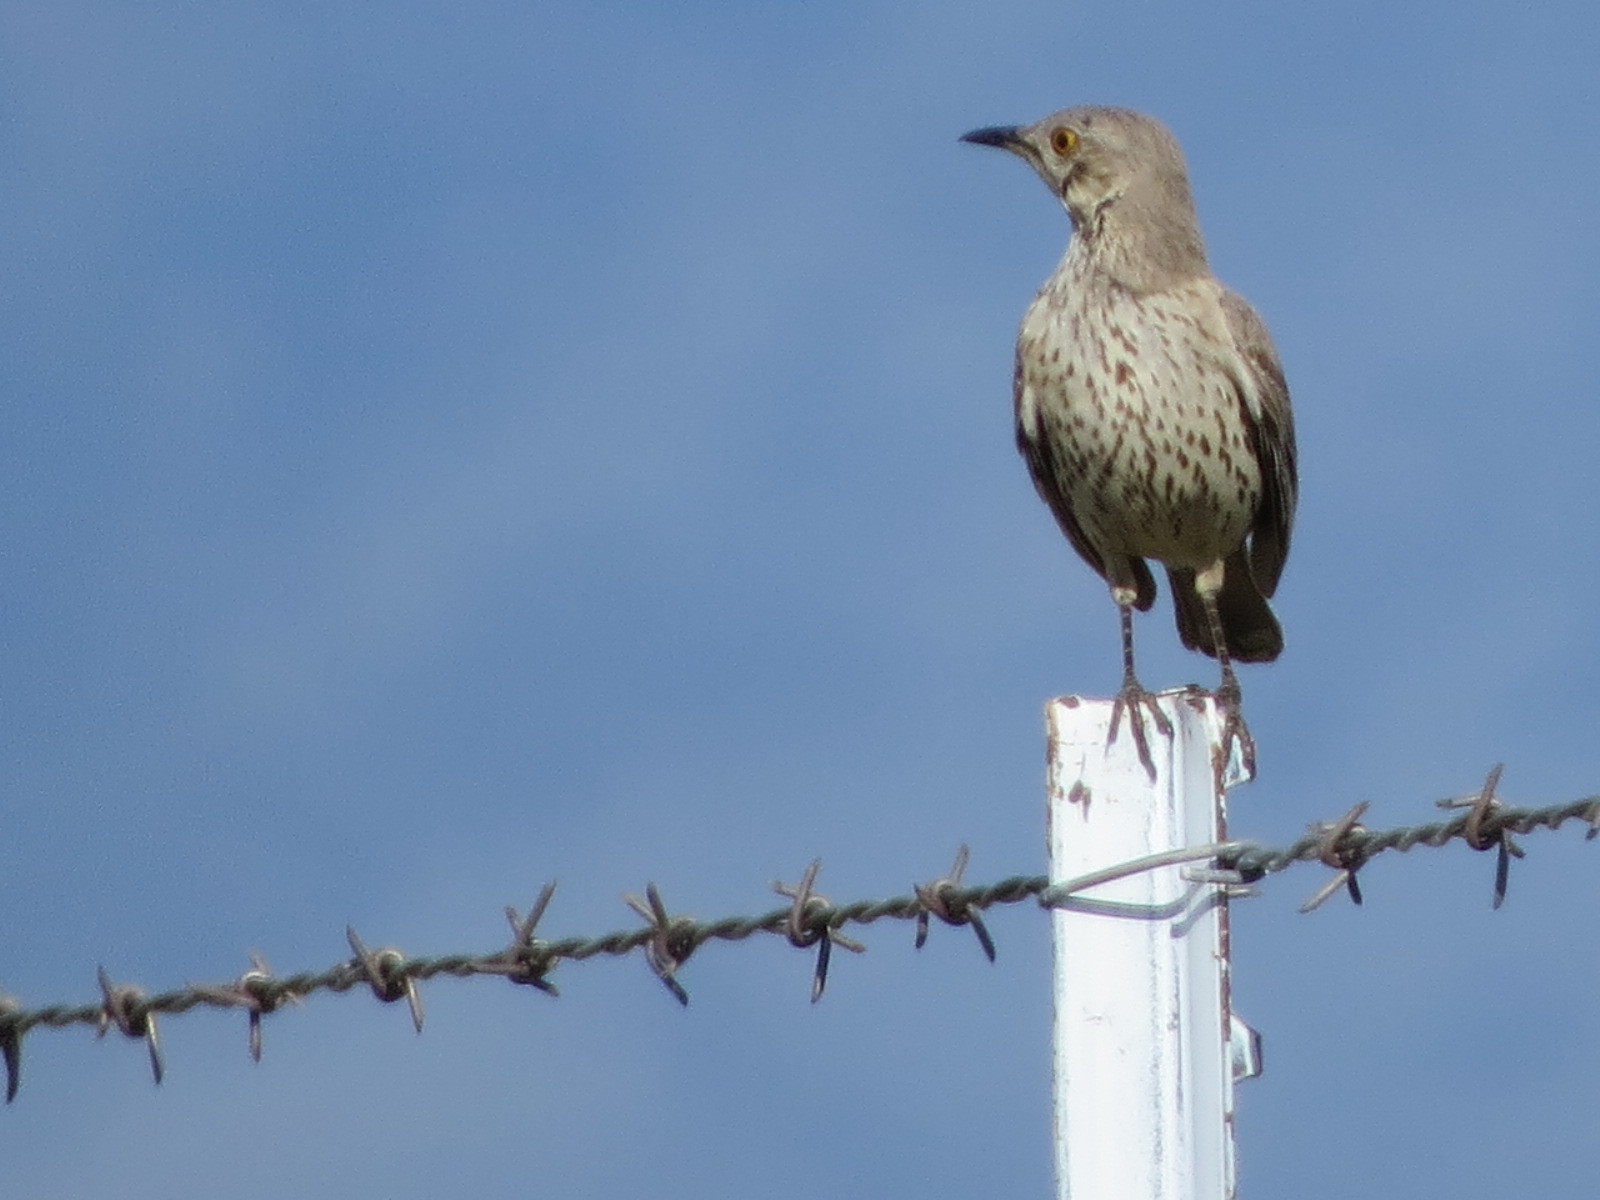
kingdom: Animalia
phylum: Chordata
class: Aves
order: Passeriformes
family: Mimidae
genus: Oreoscoptes
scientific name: Oreoscoptes montanus
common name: Sage thrasher
